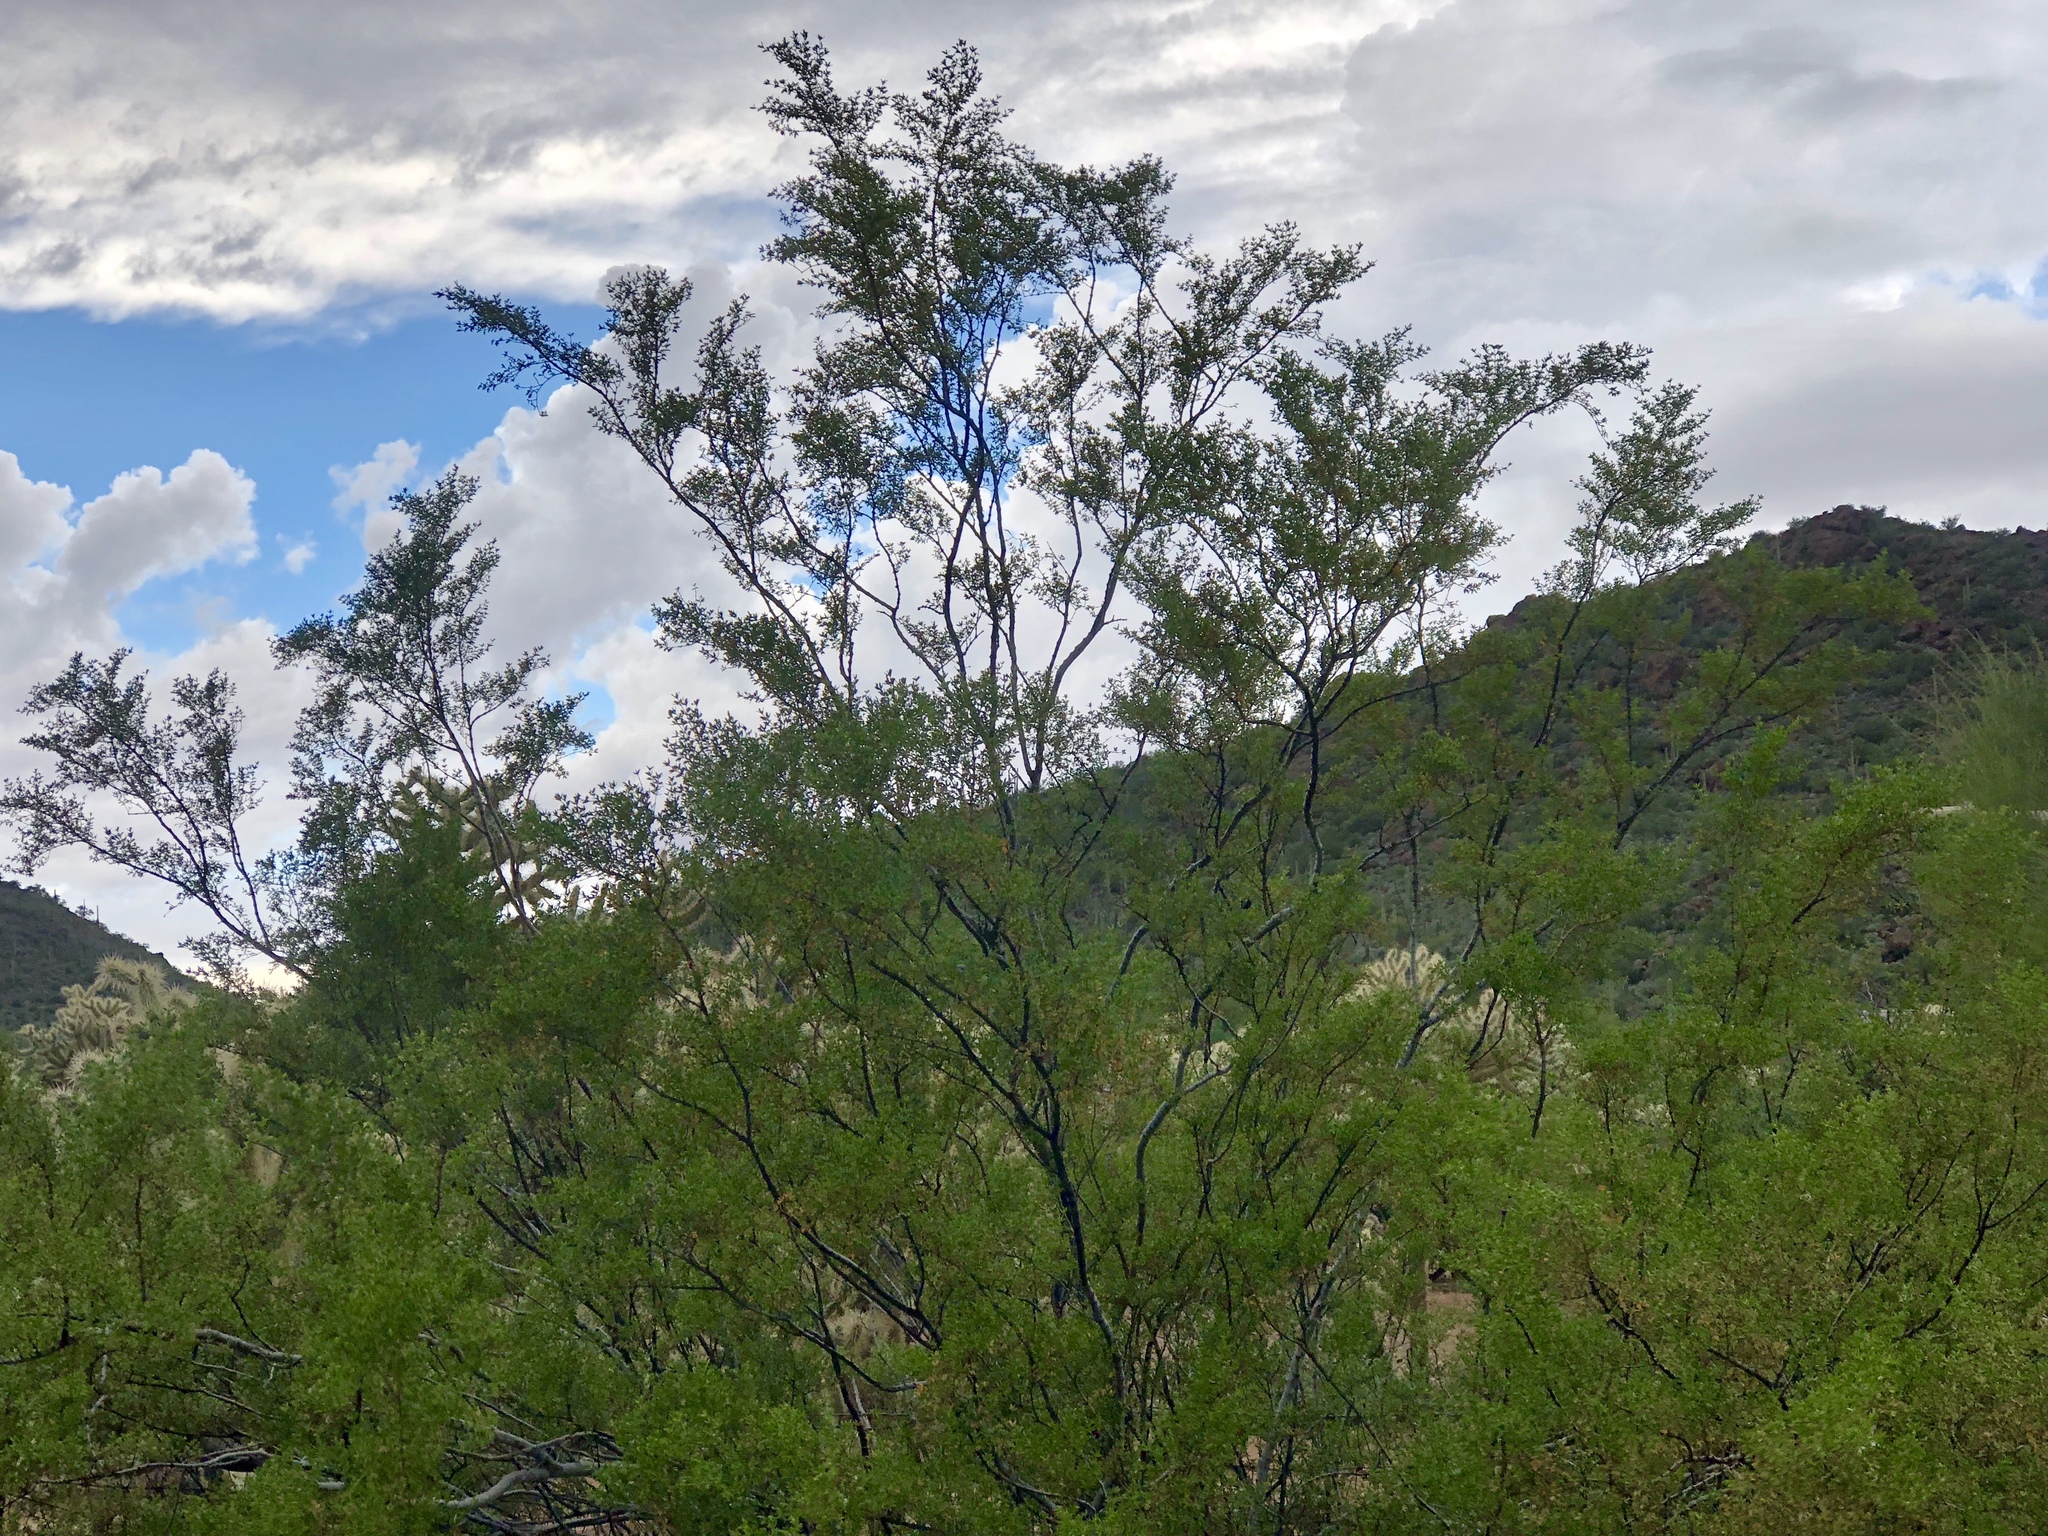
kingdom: Plantae
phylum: Tracheophyta
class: Magnoliopsida
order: Zygophyllales
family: Zygophyllaceae
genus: Larrea
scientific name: Larrea tridentata
